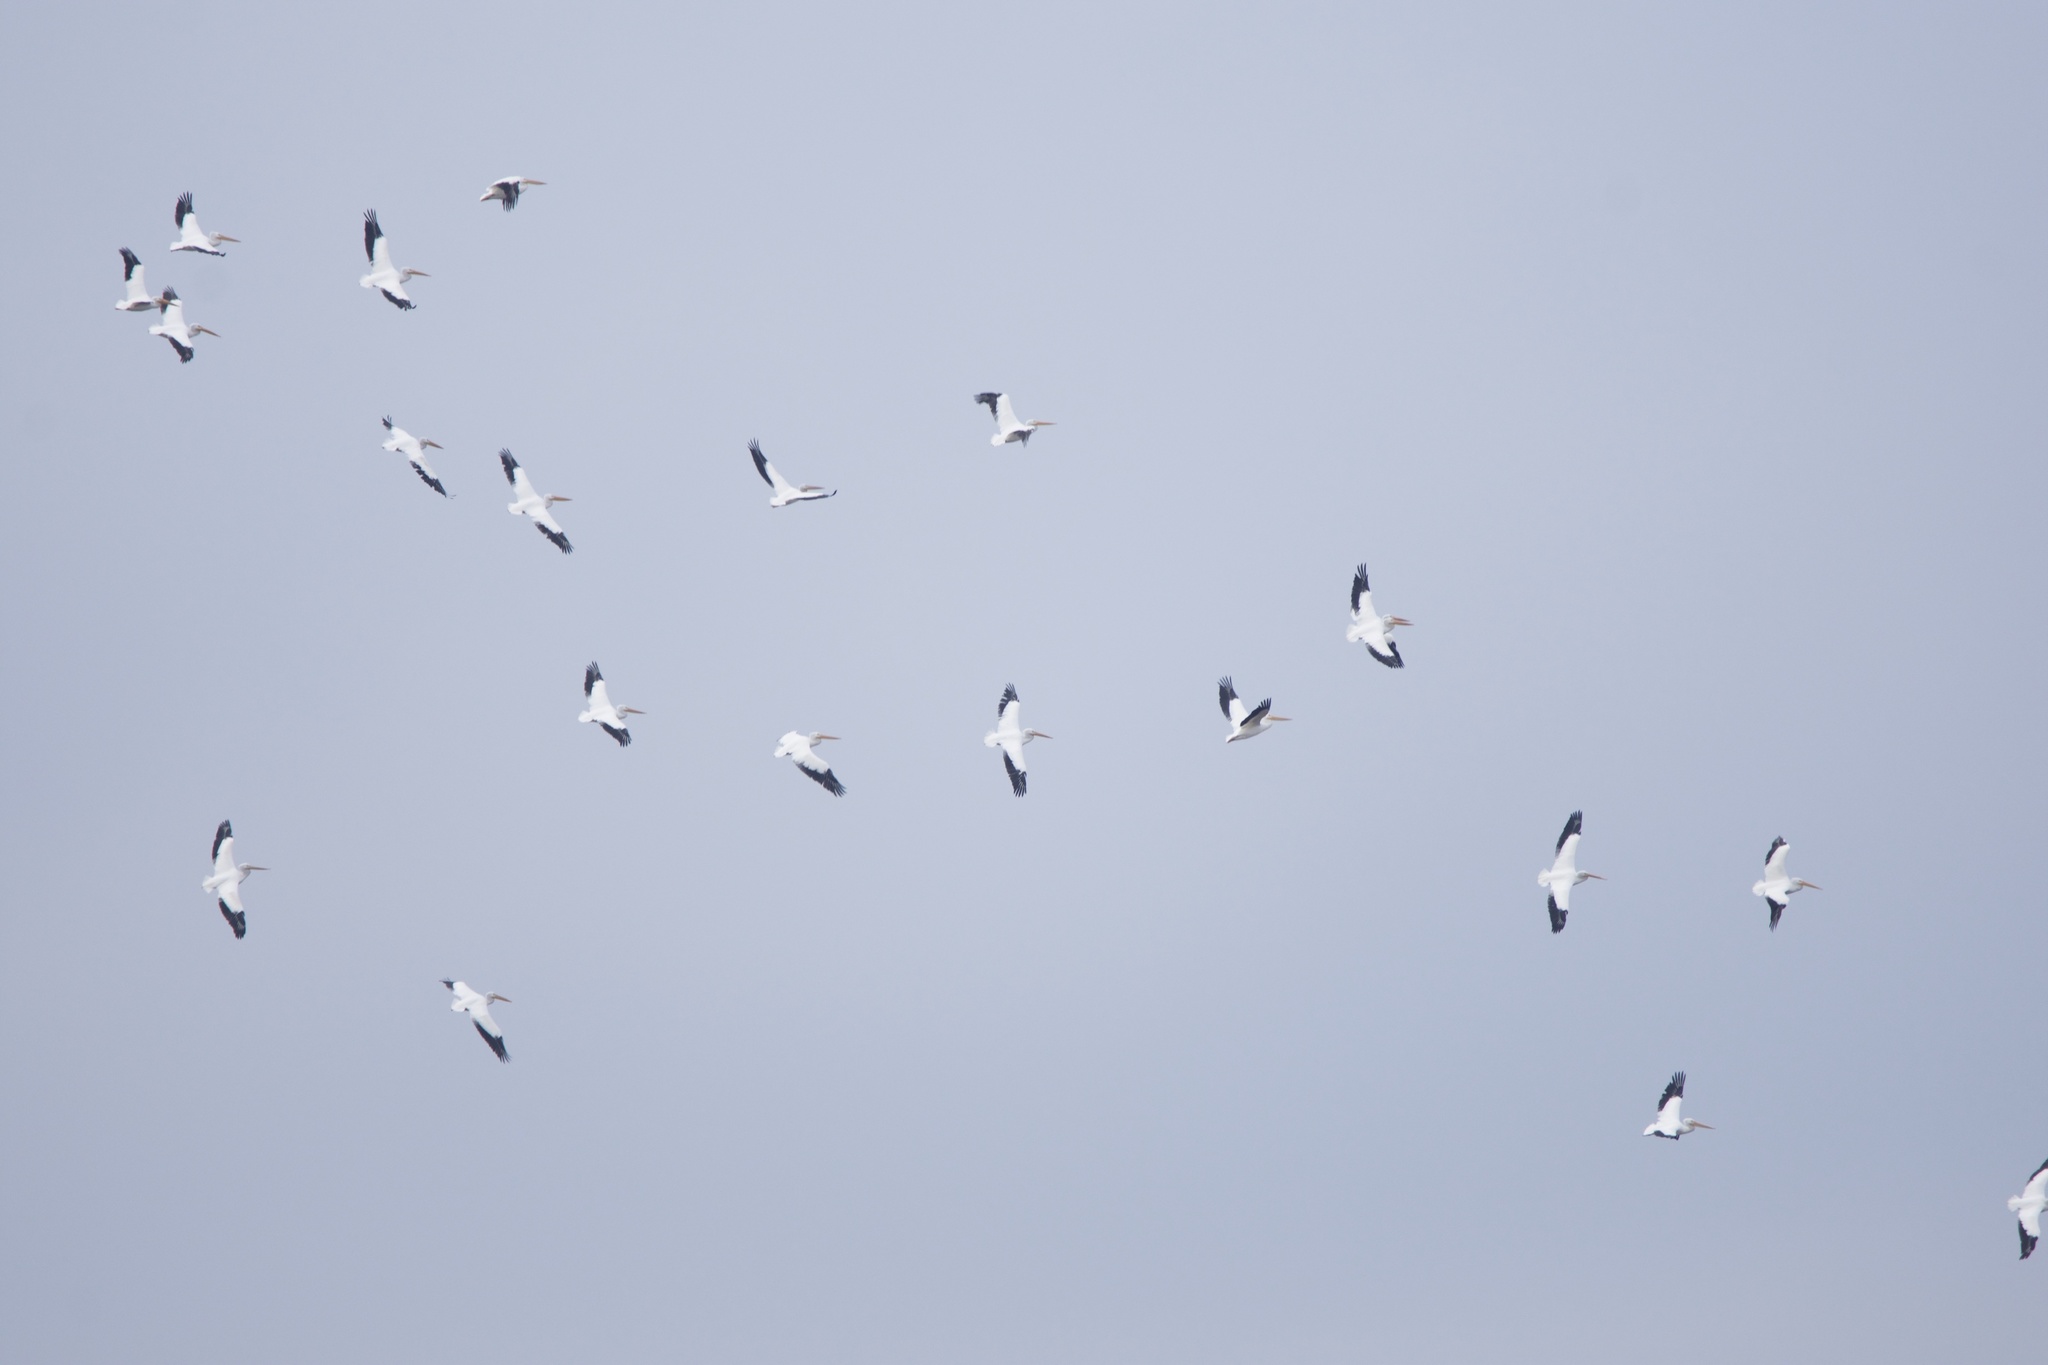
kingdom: Animalia
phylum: Chordata
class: Aves
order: Pelecaniformes
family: Pelecanidae
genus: Pelecanus
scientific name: Pelecanus erythrorhynchos
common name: American white pelican
